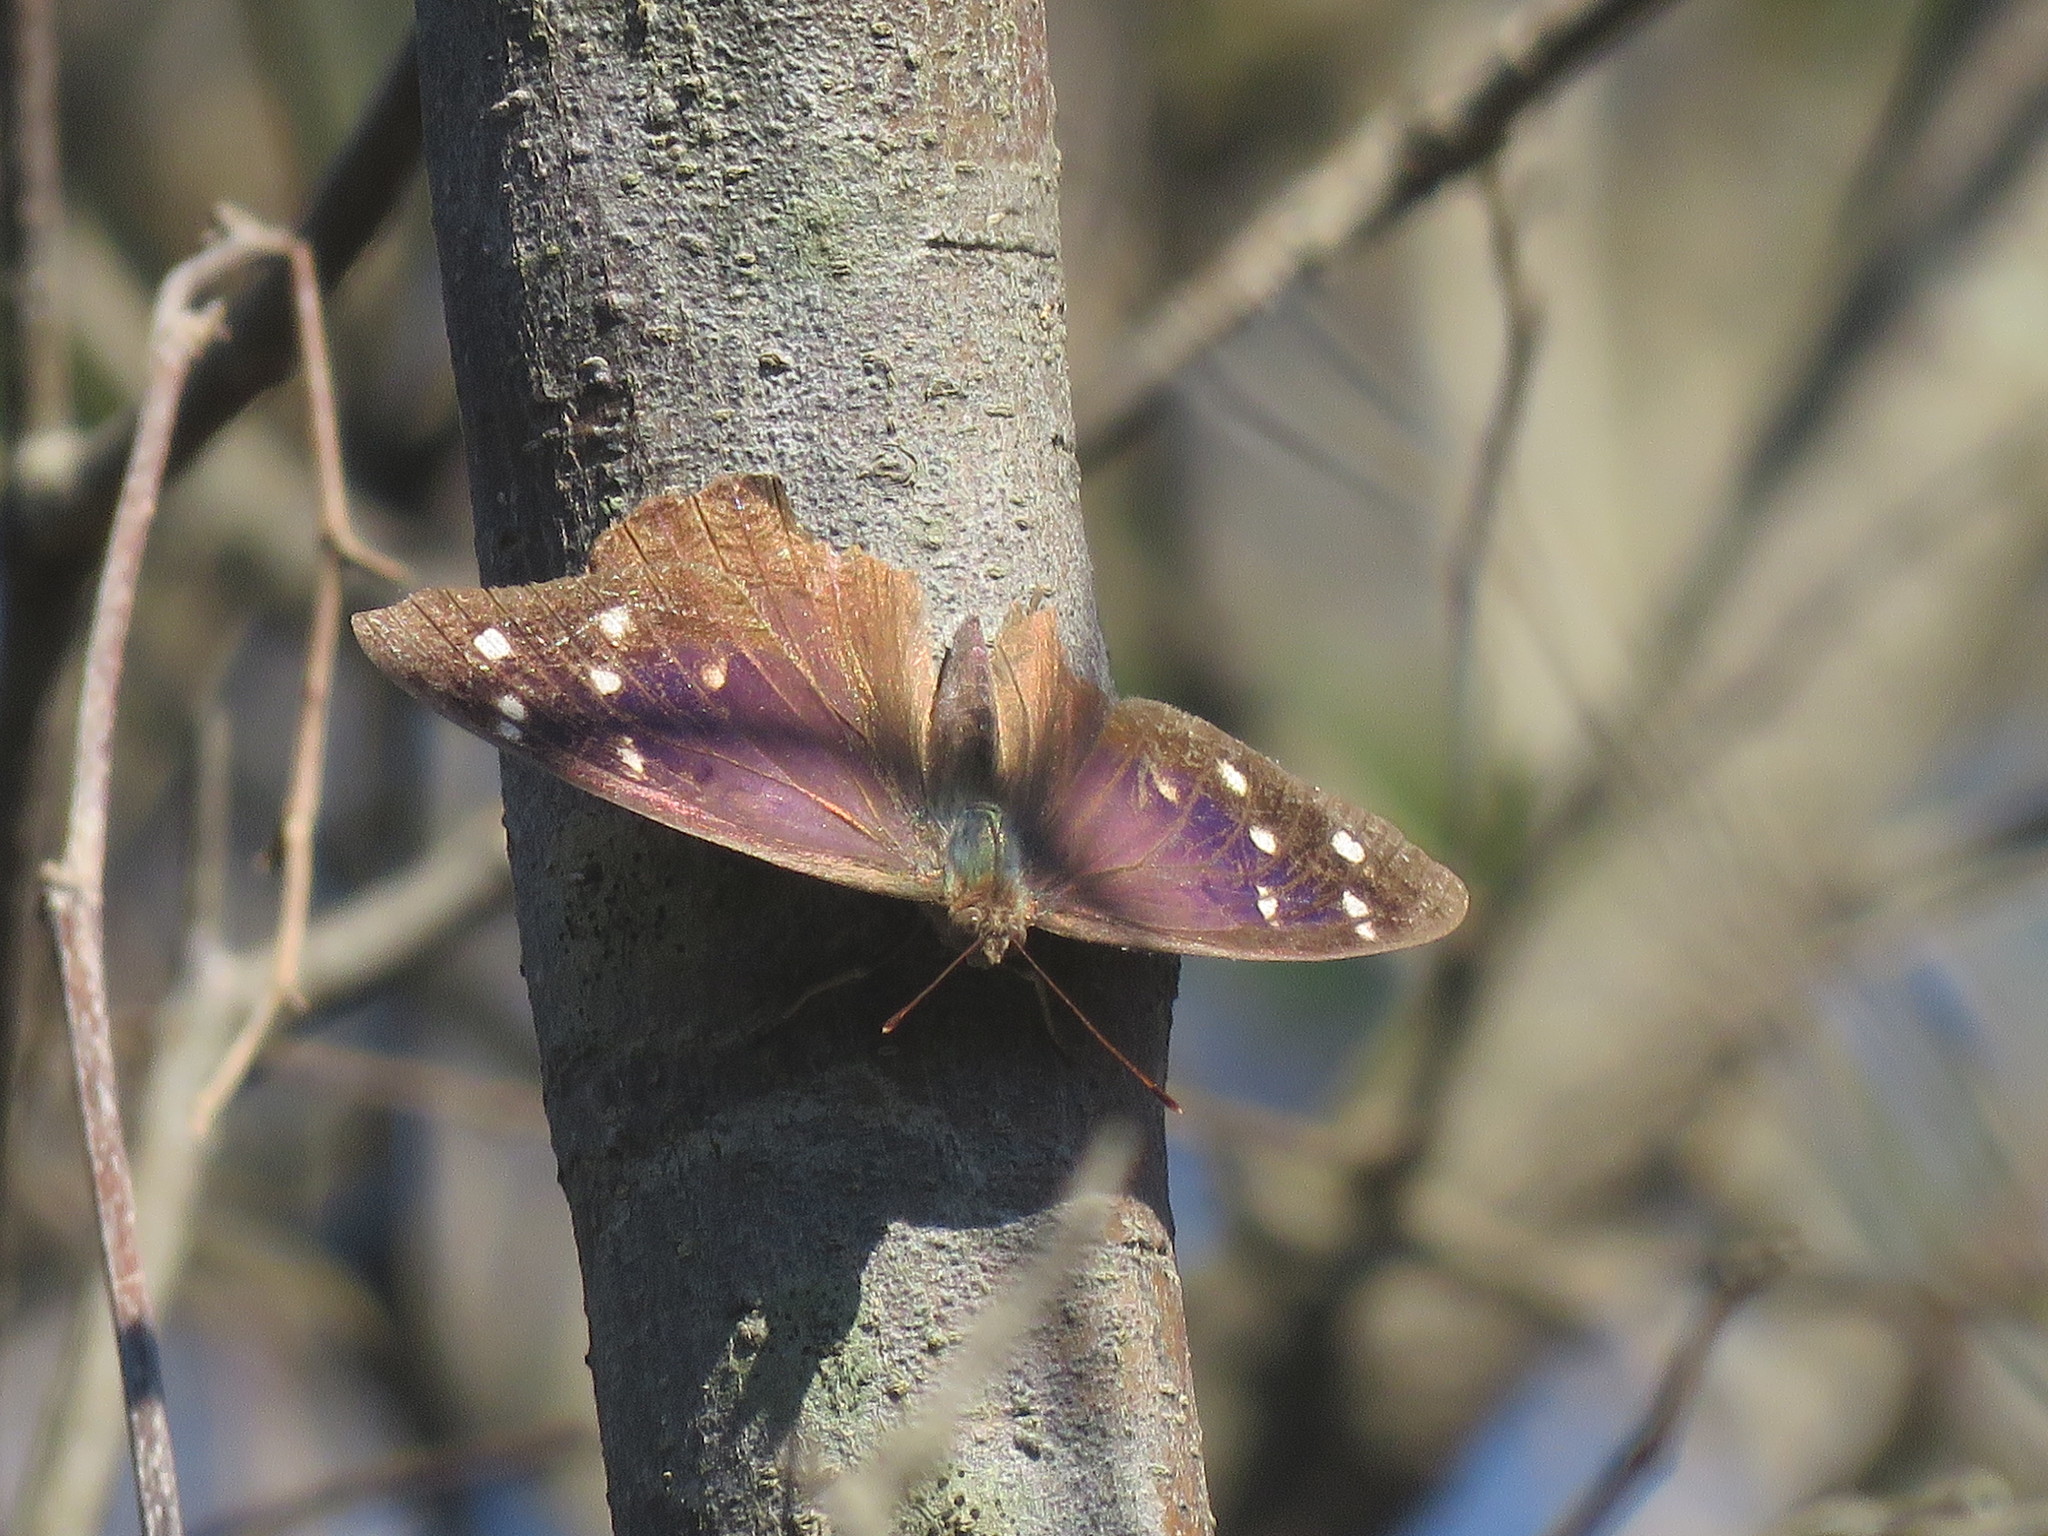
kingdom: Animalia
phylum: Arthropoda
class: Insecta
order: Lepidoptera
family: Nymphalidae
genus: Eunica
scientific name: Eunica tatila
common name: Florida purplewing
